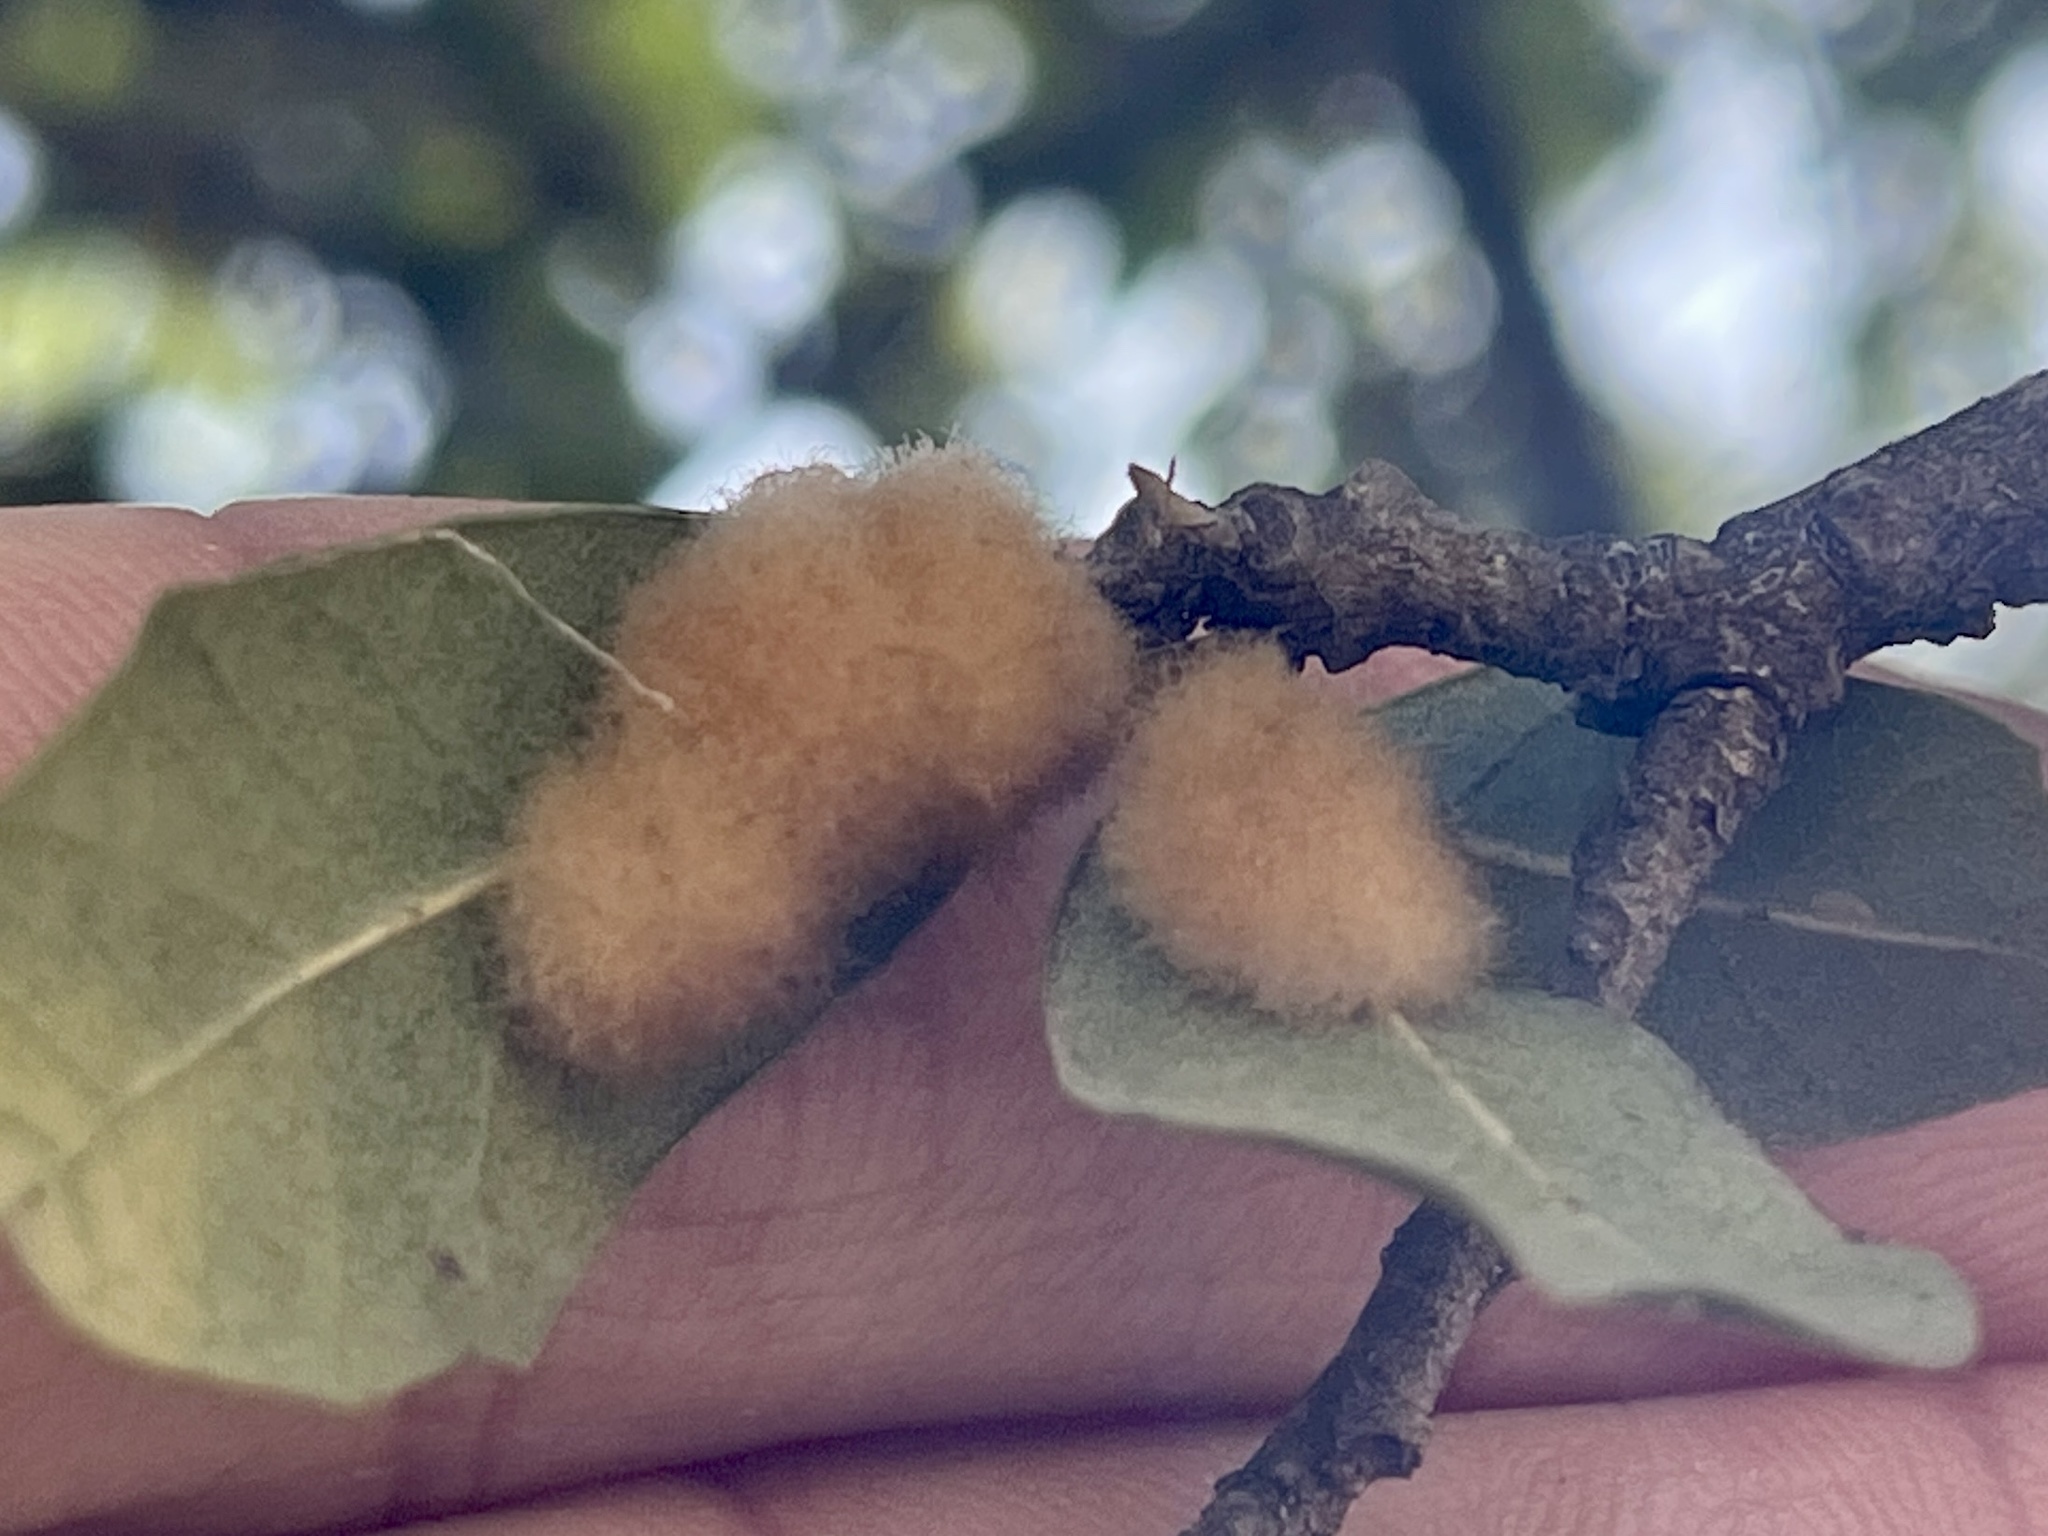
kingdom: Animalia
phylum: Arthropoda
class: Insecta
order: Hymenoptera
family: Cynipidae
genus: Andricus
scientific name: Andricus Druon quercuslanigerum
